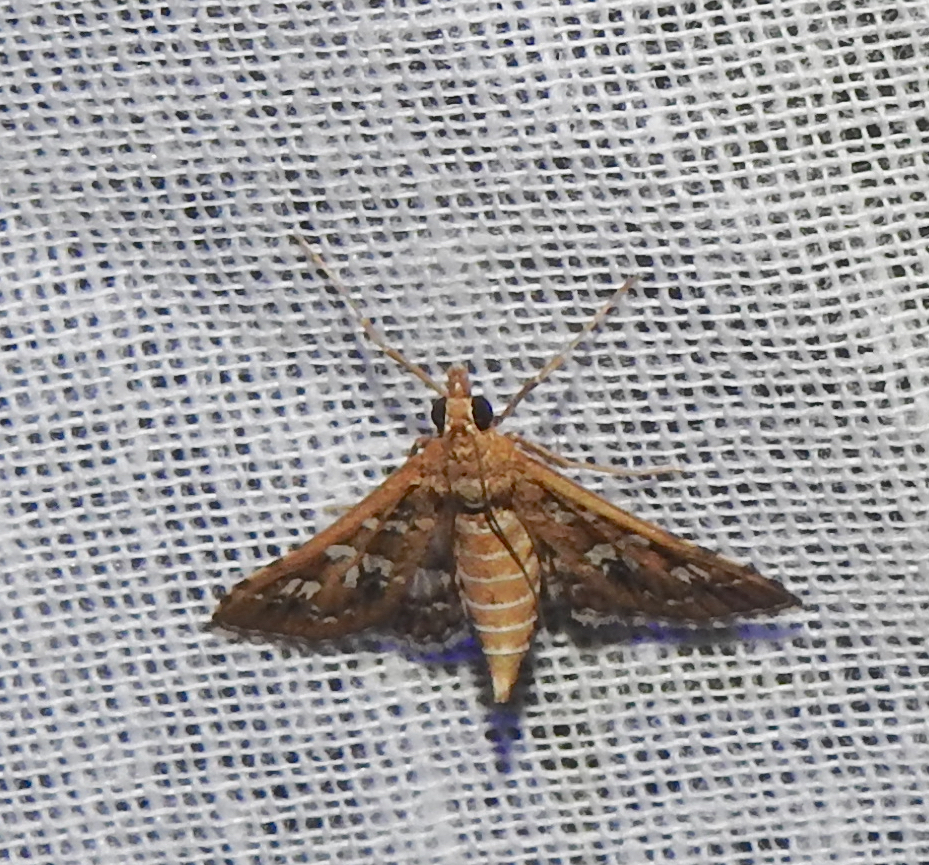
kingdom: Animalia
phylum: Arthropoda
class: Insecta
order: Lepidoptera
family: Crambidae
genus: Sameodes
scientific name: Sameodes cancellalis
